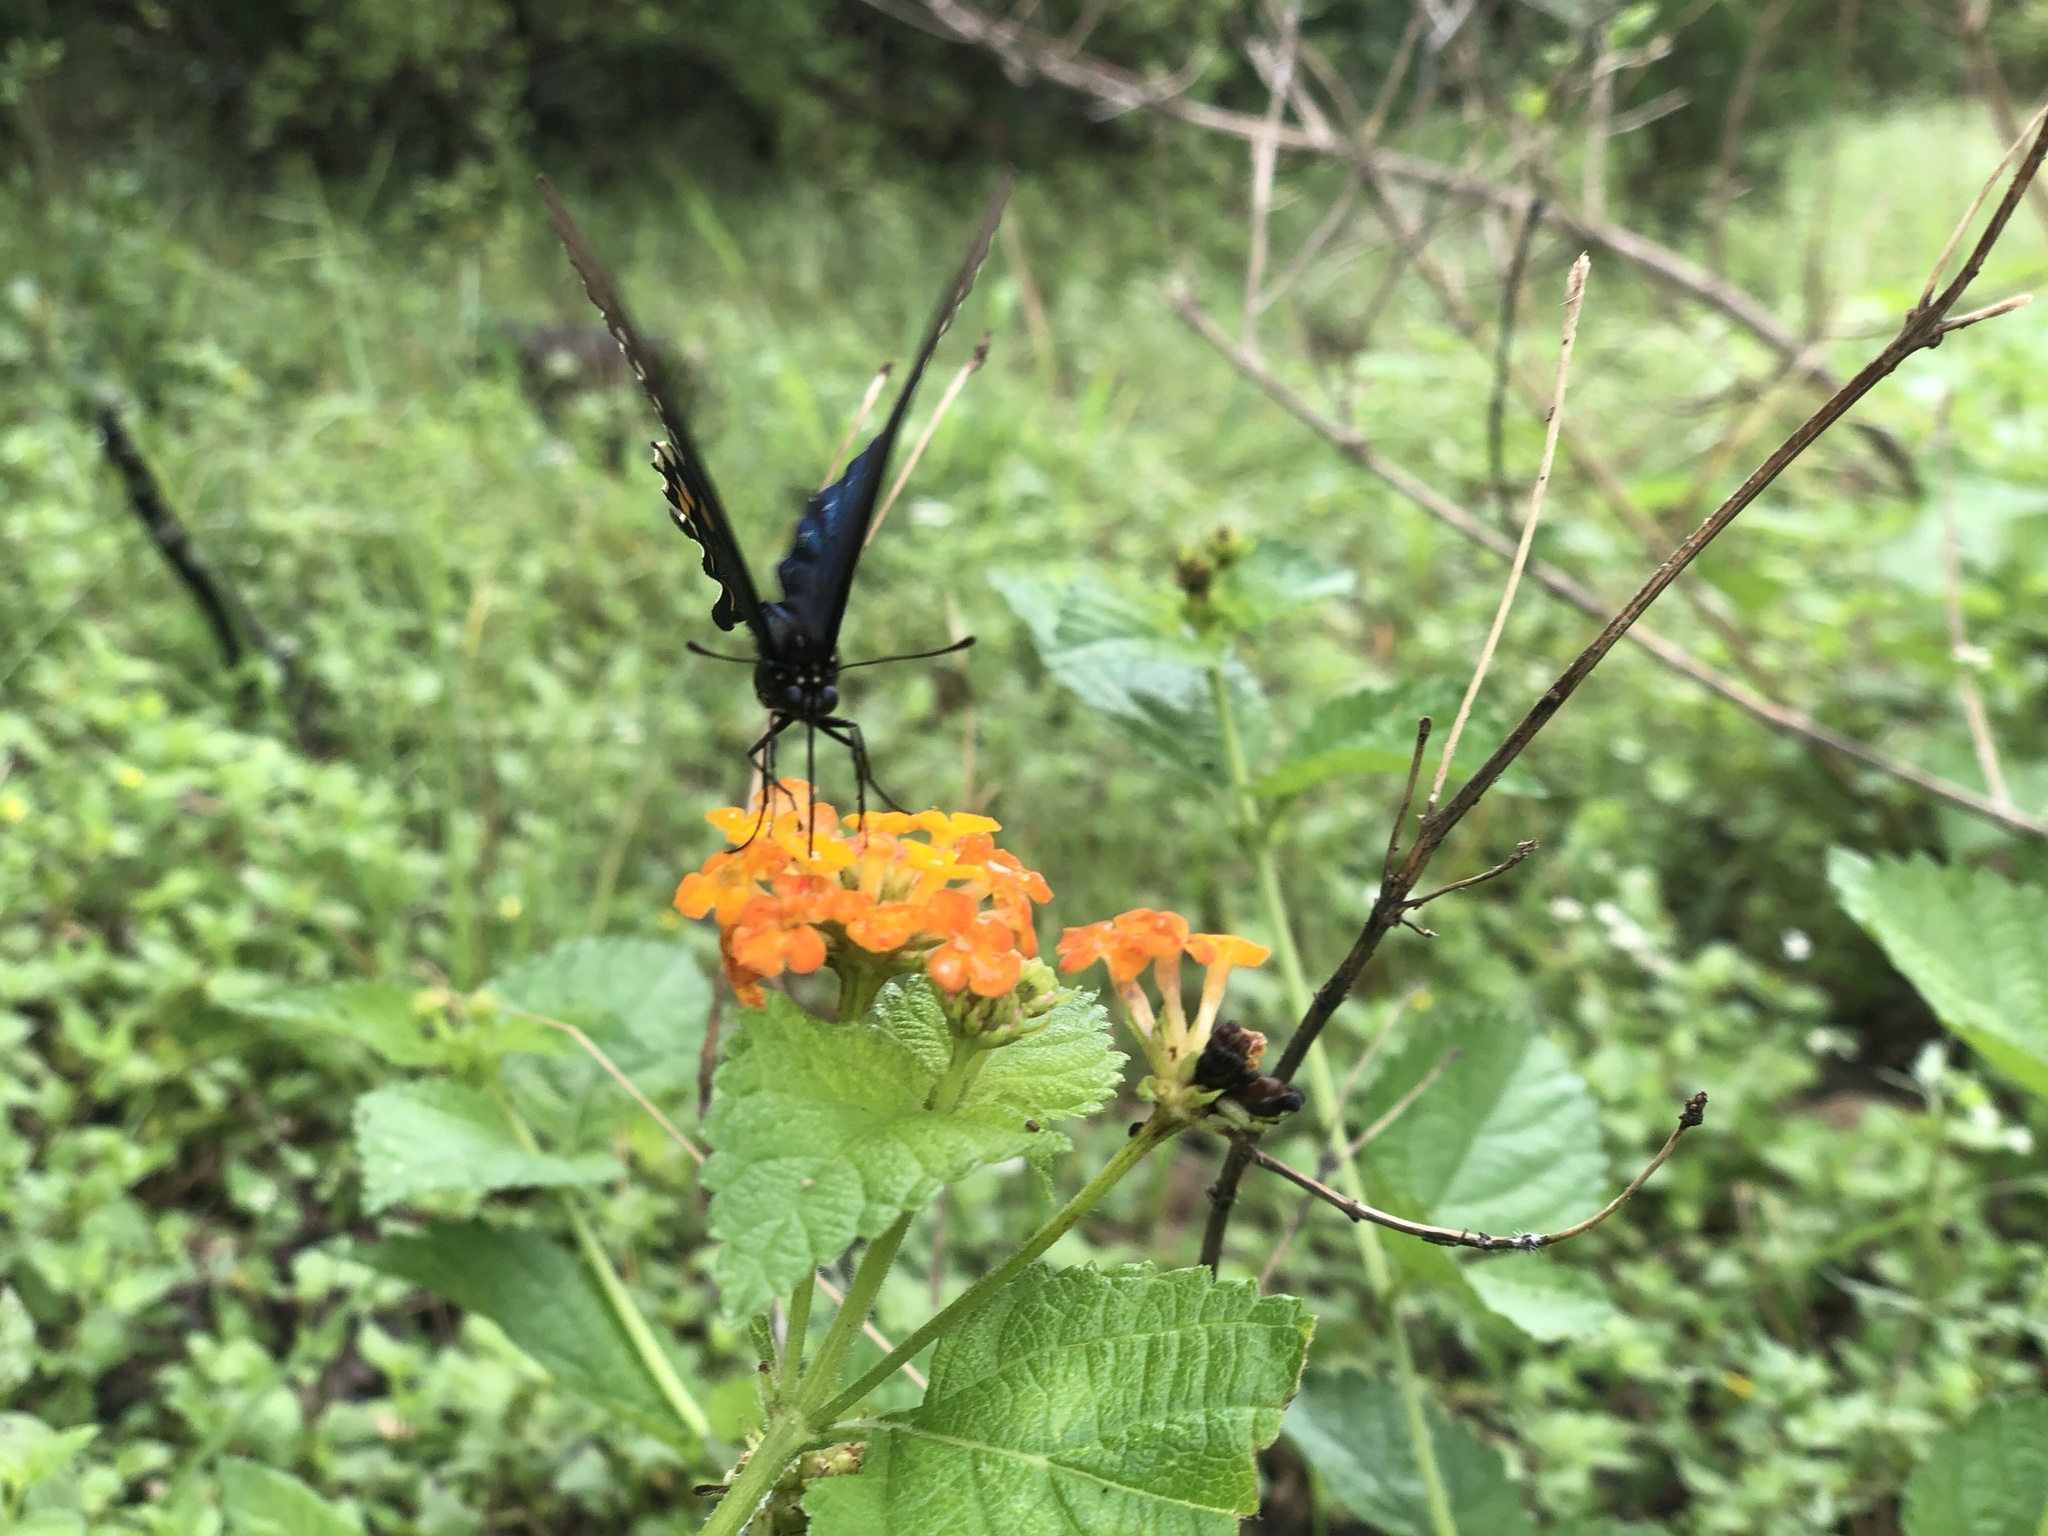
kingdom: Animalia
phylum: Arthropoda
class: Insecta
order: Lepidoptera
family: Papilionidae
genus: Battus
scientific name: Battus philenor
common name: Pipevine swallowtail
